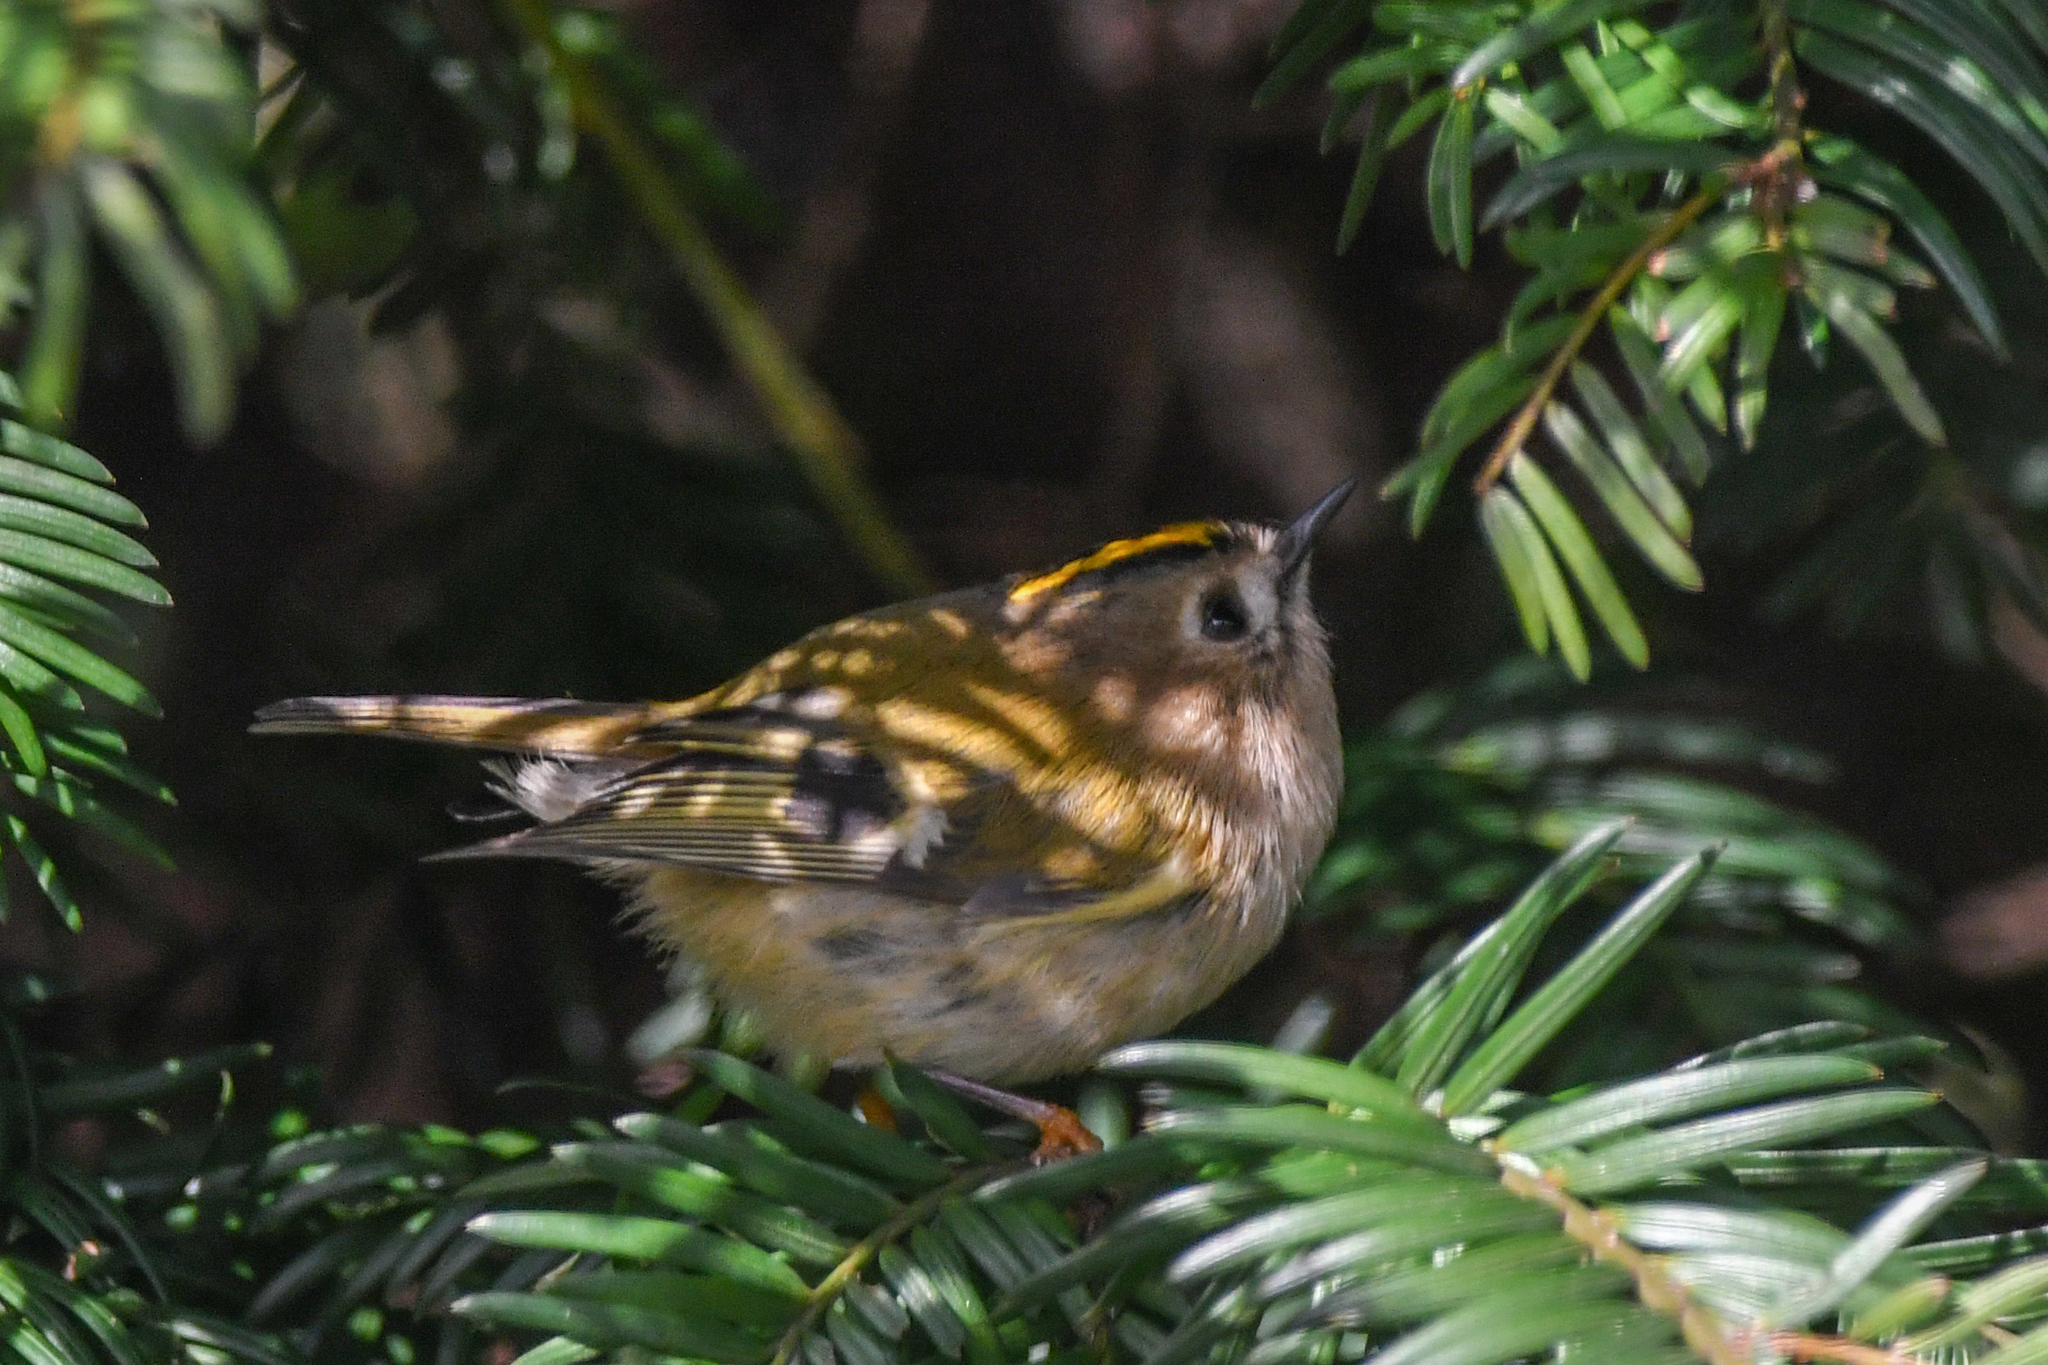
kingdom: Animalia
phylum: Chordata
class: Aves
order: Passeriformes
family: Regulidae
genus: Regulus
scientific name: Regulus regulus
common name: Goldcrest
